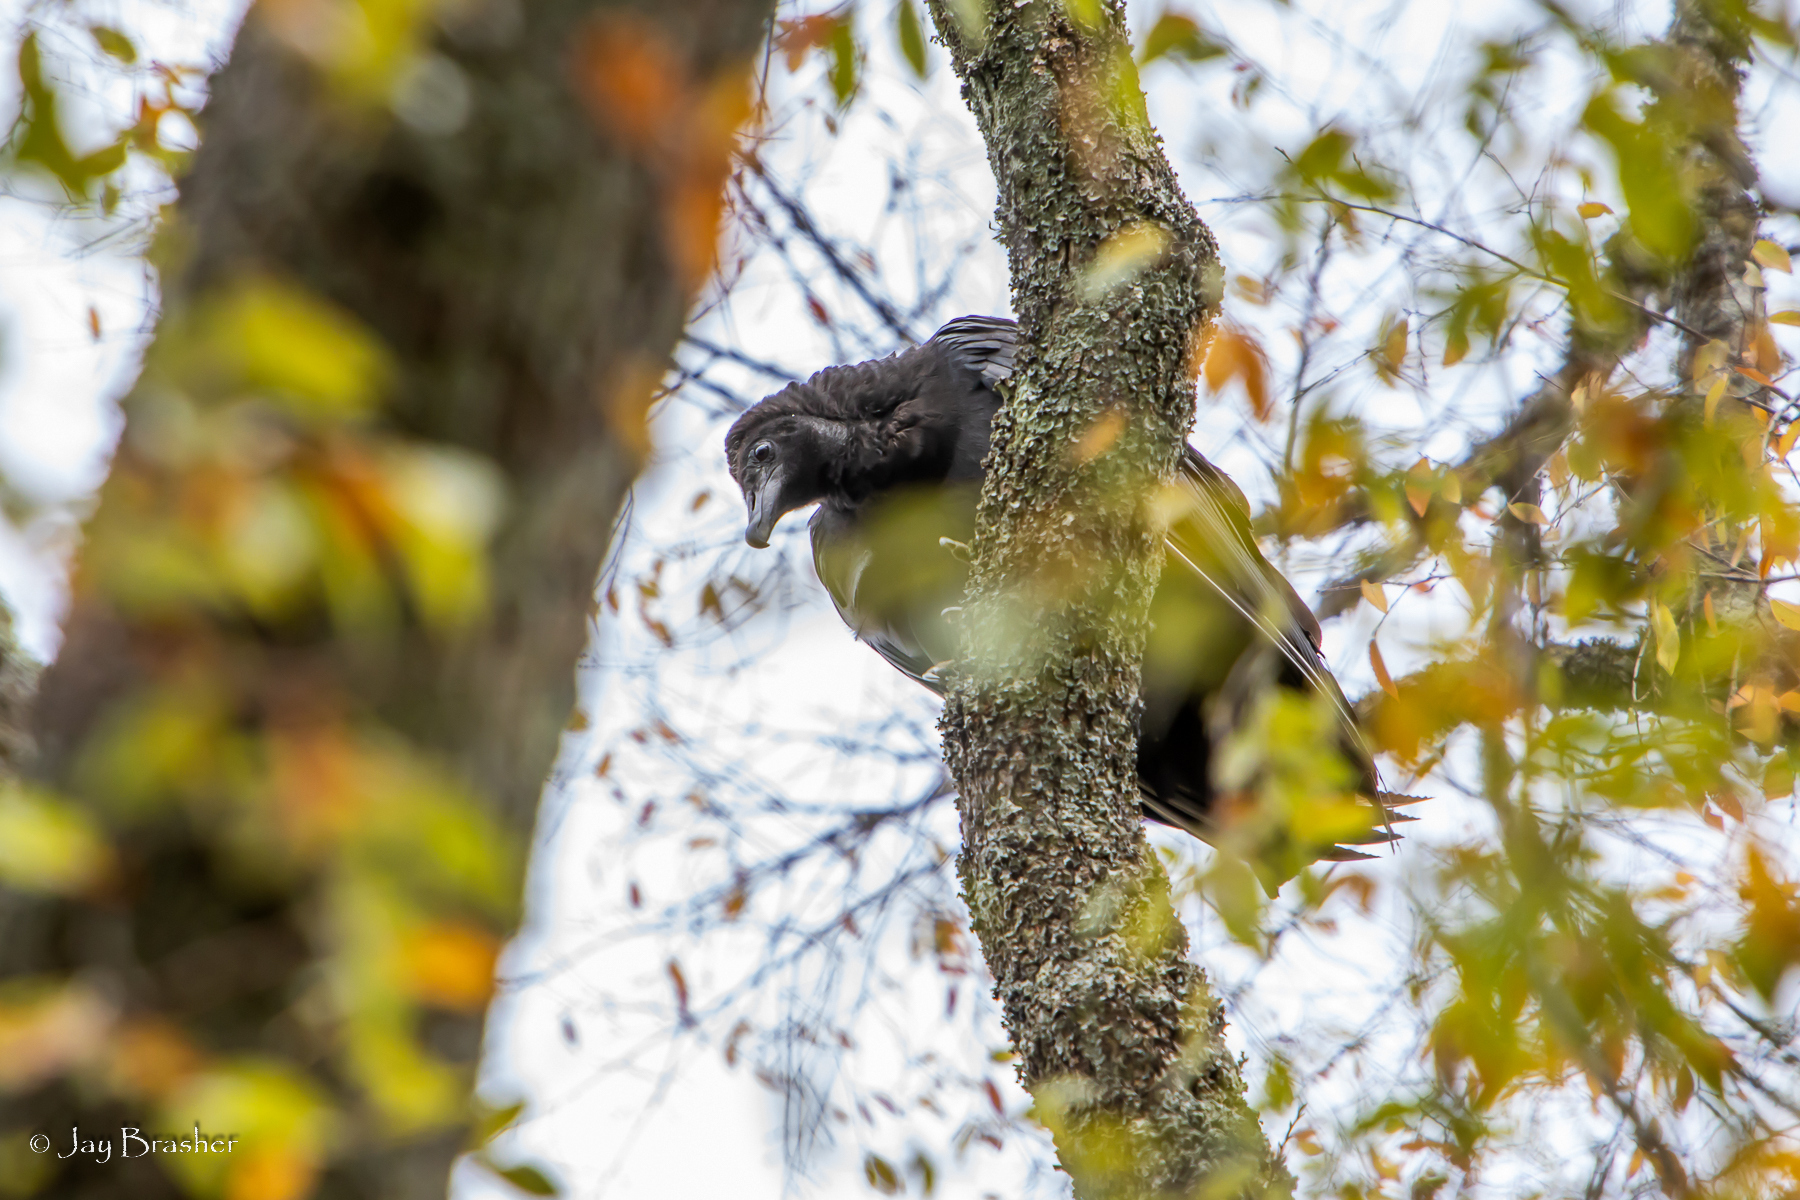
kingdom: Animalia
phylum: Chordata
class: Aves
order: Accipitriformes
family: Cathartidae
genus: Coragyps
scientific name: Coragyps atratus
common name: Black vulture
